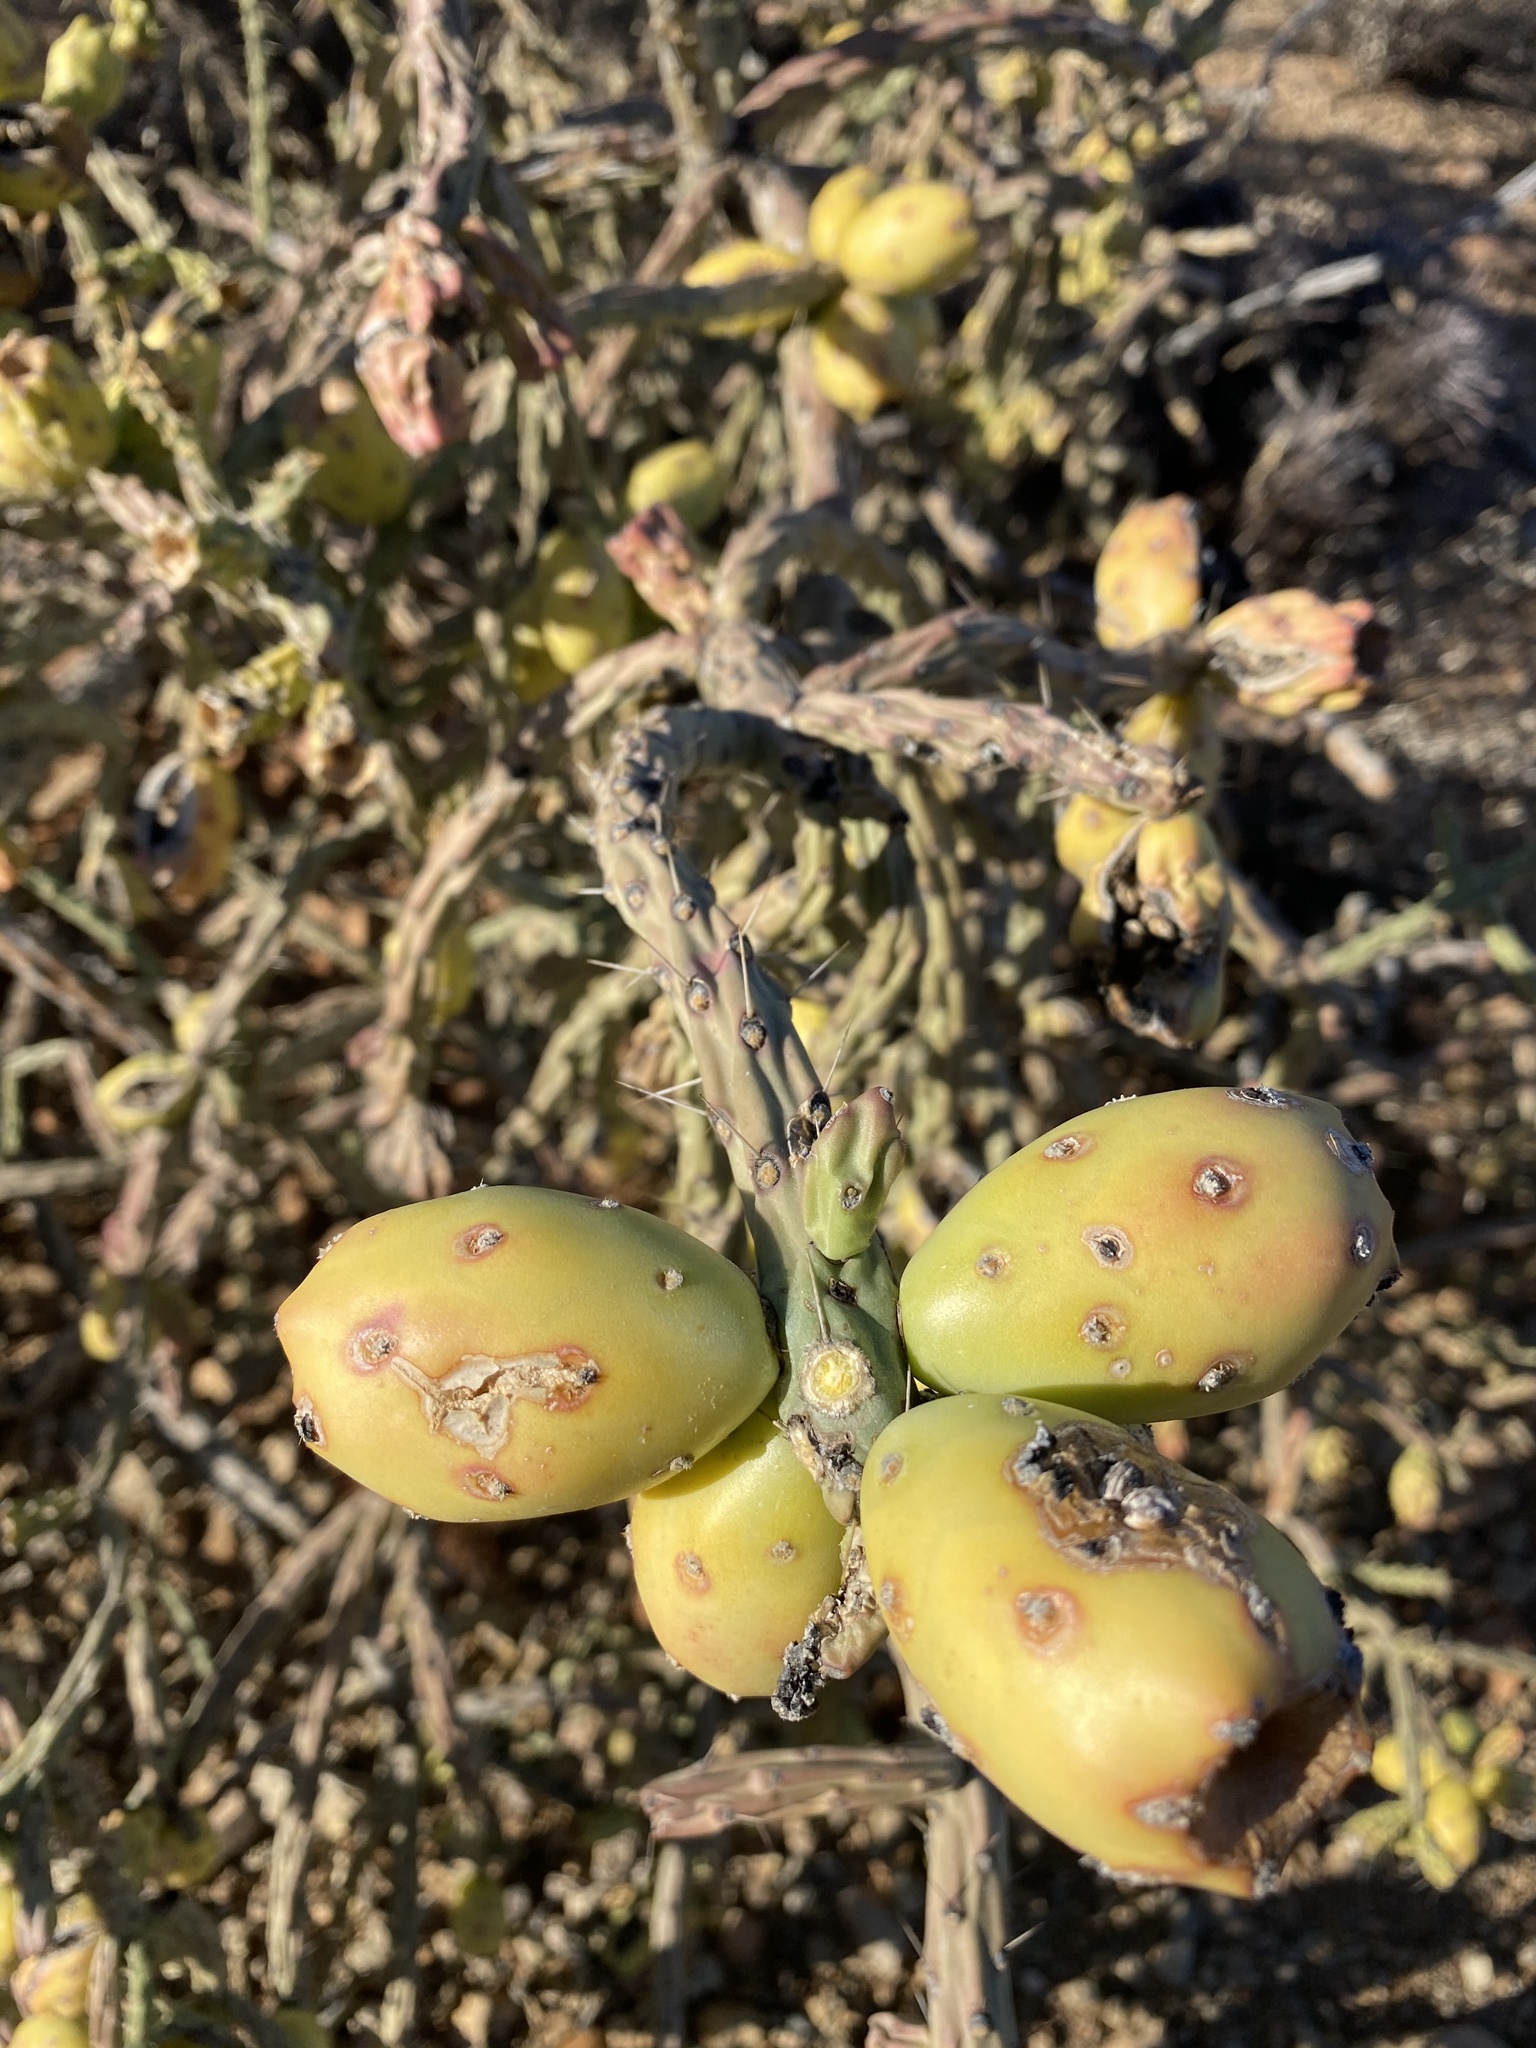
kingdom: Plantae
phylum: Tracheophyta
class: Magnoliopsida
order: Caryophyllales
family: Cactaceae
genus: Cylindropuntia
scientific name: Cylindropuntia arbuscula
